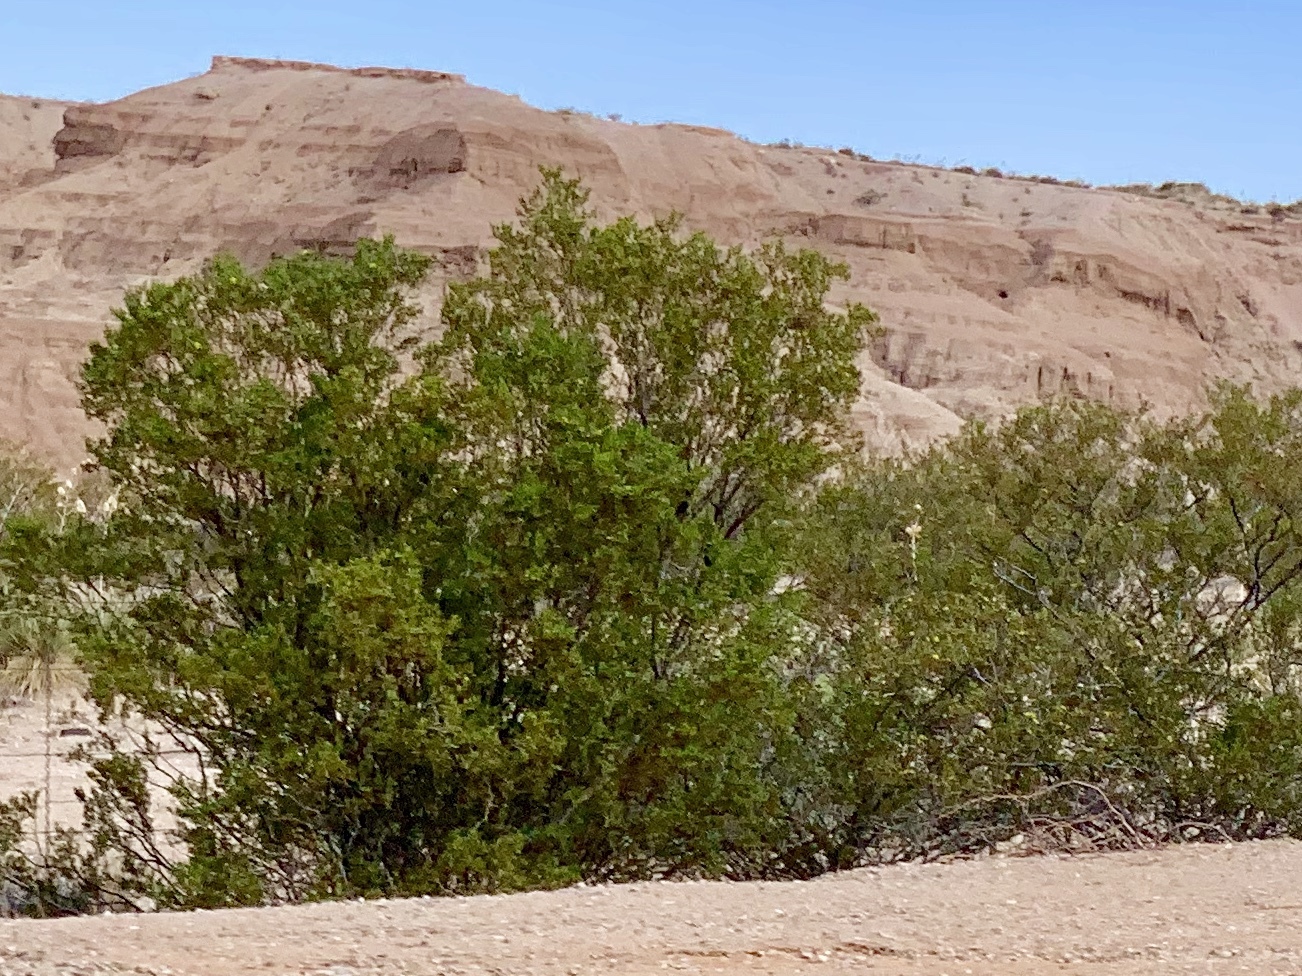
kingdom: Plantae
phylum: Tracheophyta
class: Magnoliopsida
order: Zygophyllales
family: Zygophyllaceae
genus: Larrea
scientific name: Larrea tridentata
